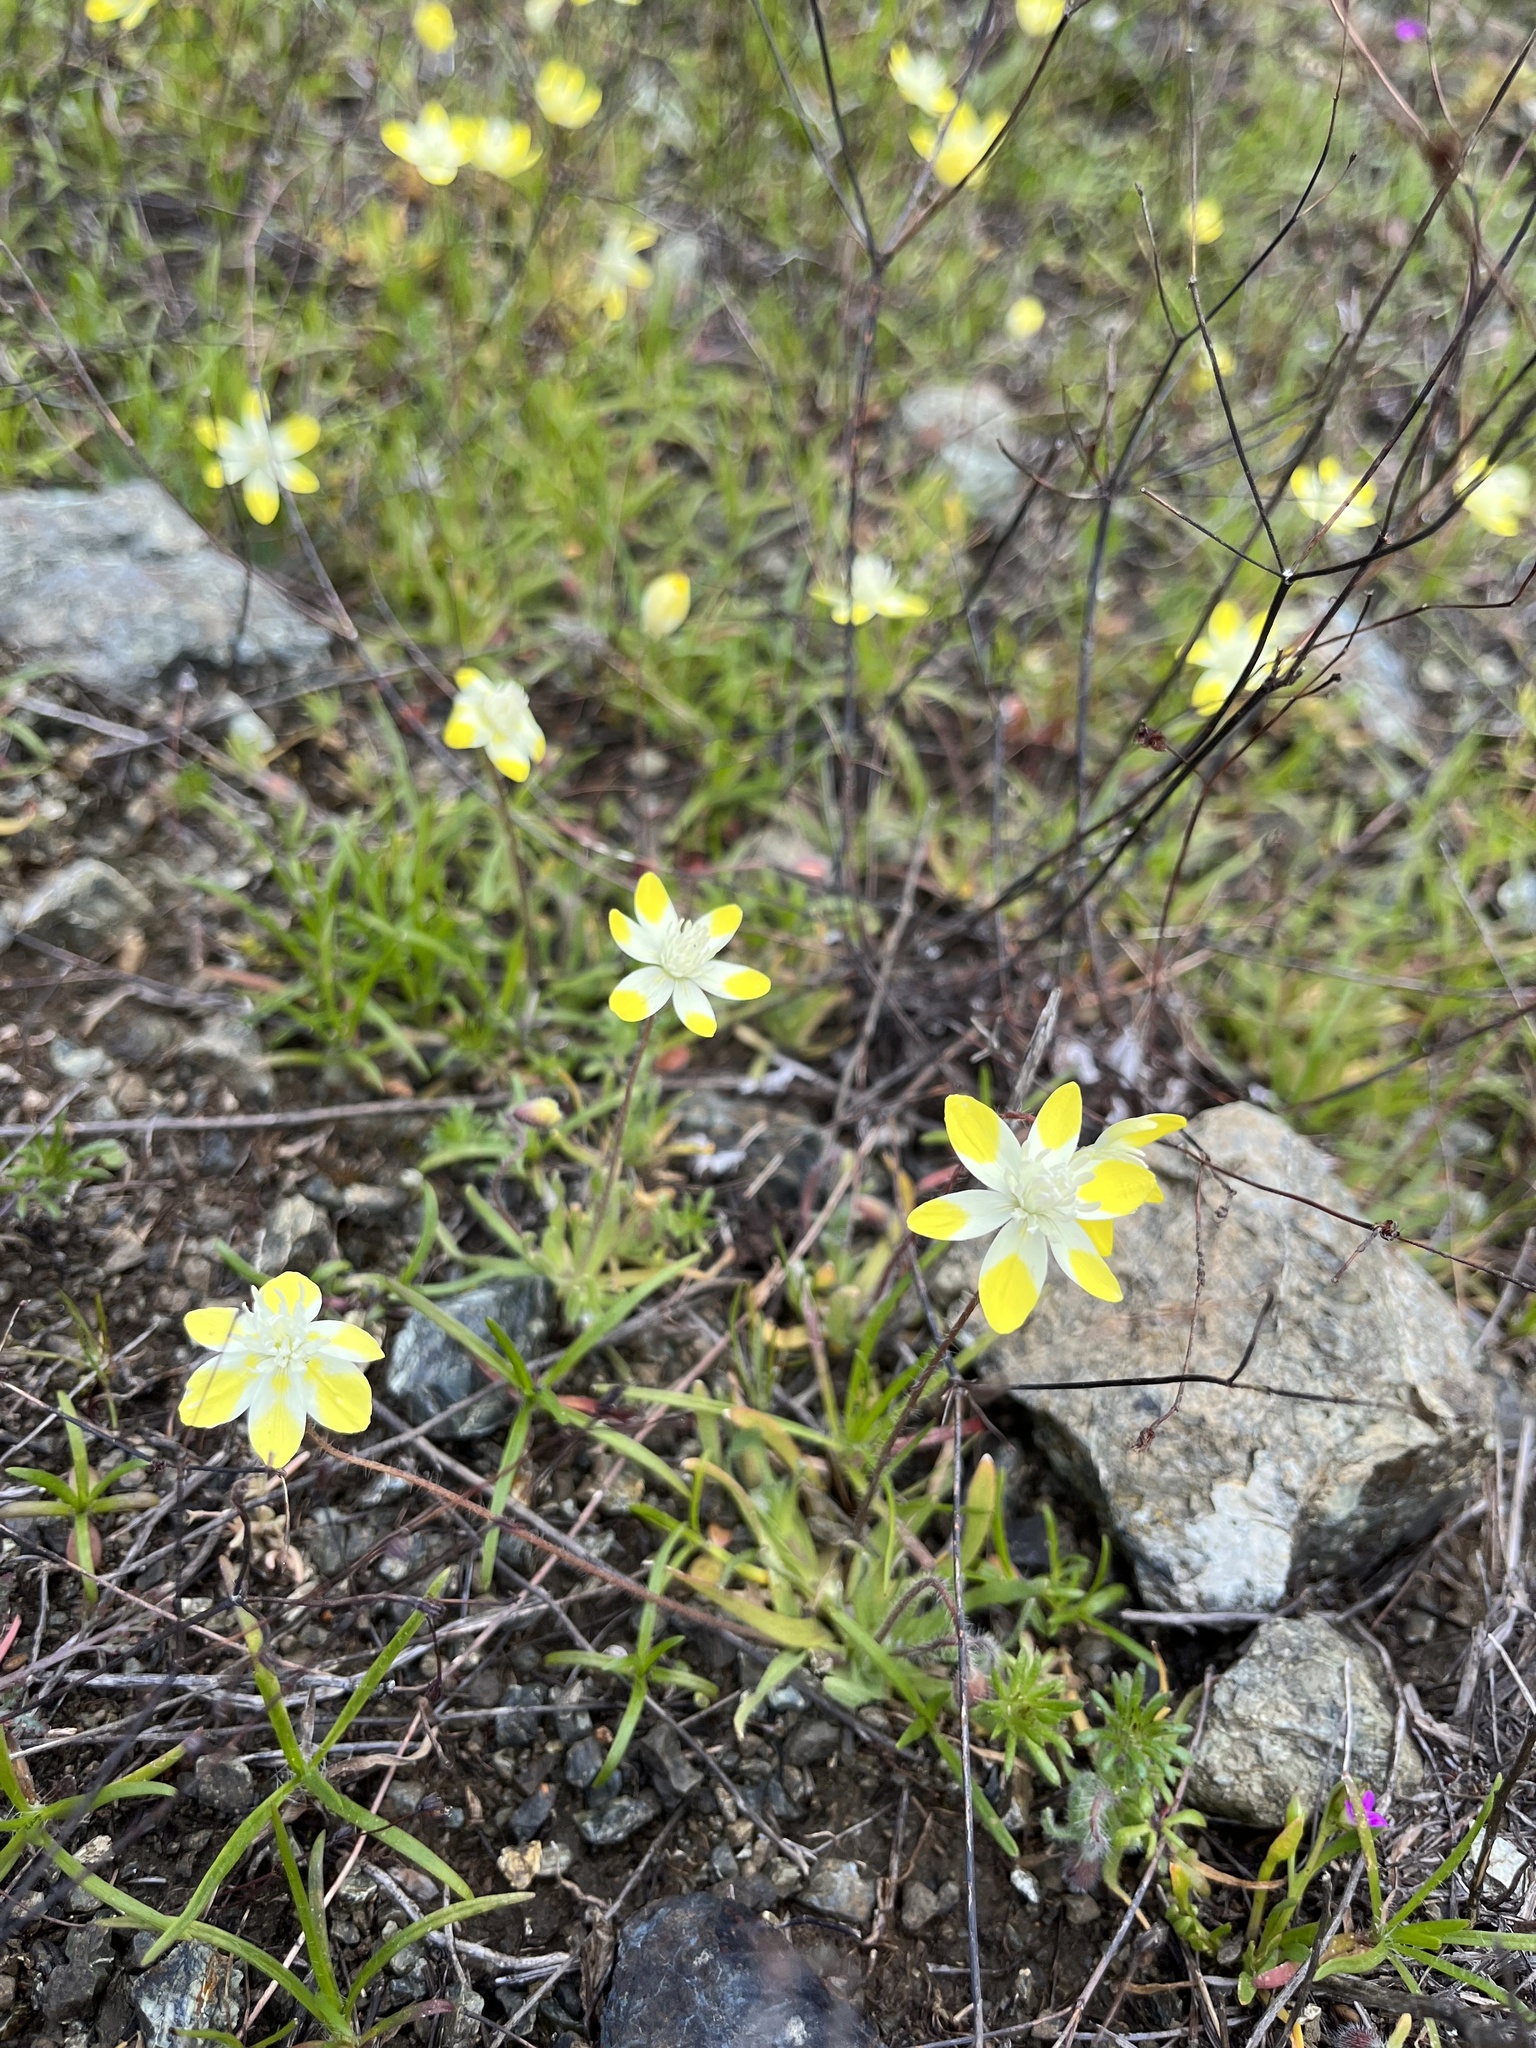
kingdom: Plantae
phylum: Tracheophyta
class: Magnoliopsida
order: Ranunculales
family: Papaveraceae
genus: Platystemon
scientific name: Platystemon californicus
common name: Cream-cups
